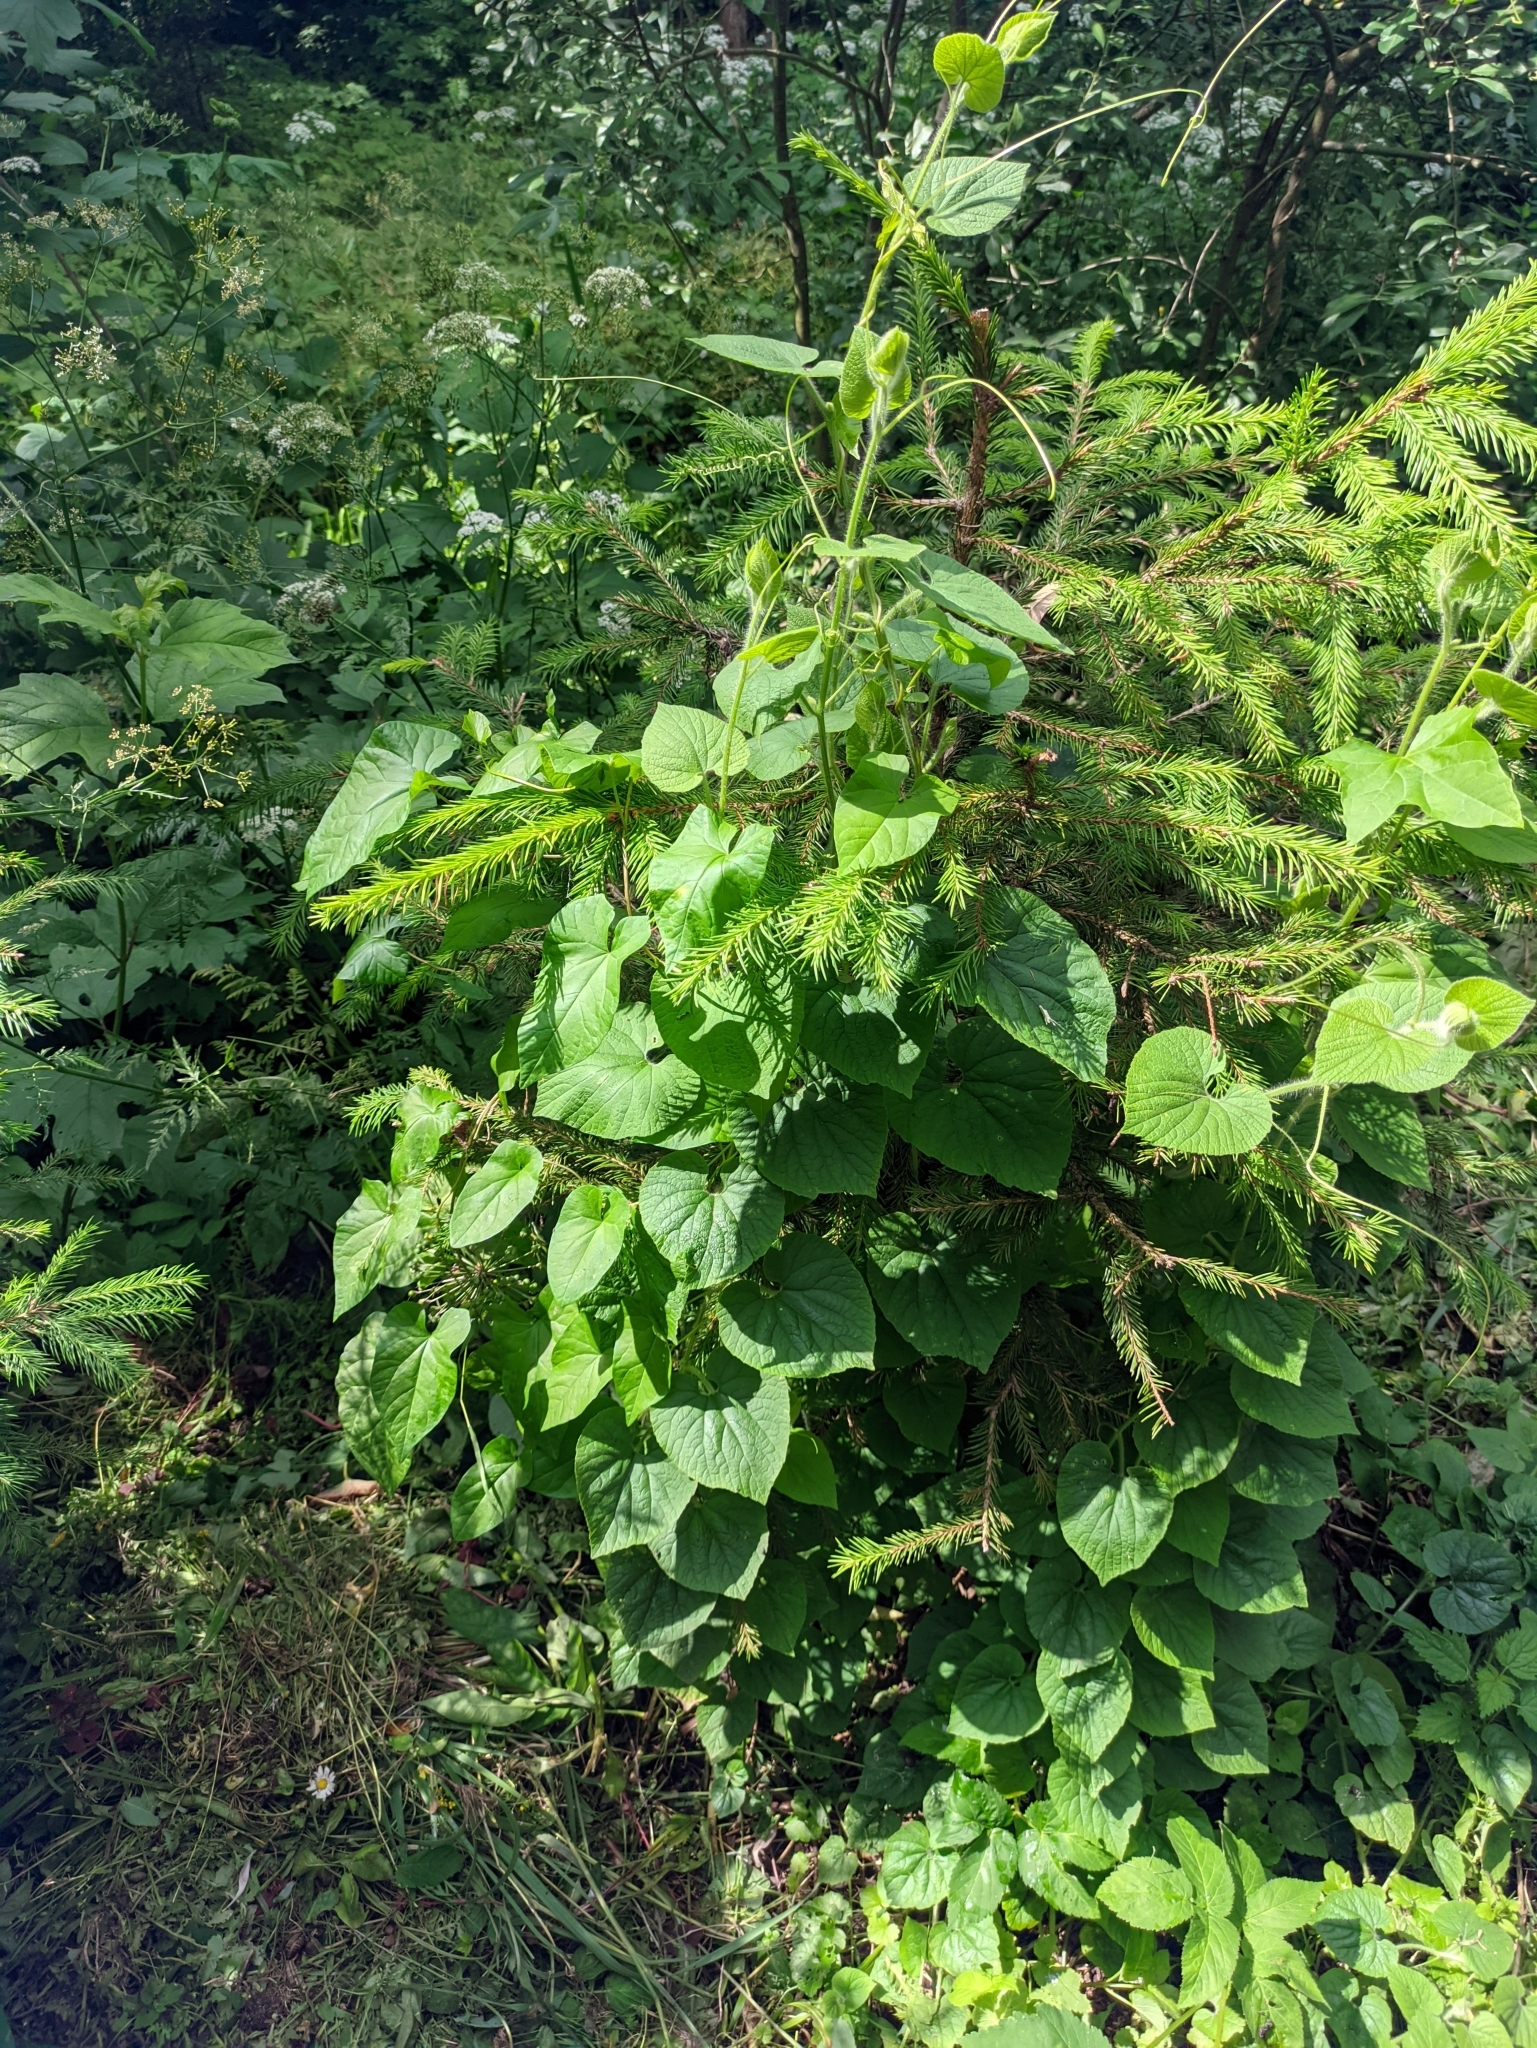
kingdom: Plantae
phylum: Tracheophyta
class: Magnoliopsida
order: Cucurbitales
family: Cucurbitaceae
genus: Thladiantha
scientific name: Thladiantha dubia
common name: Manchu tubergourd
